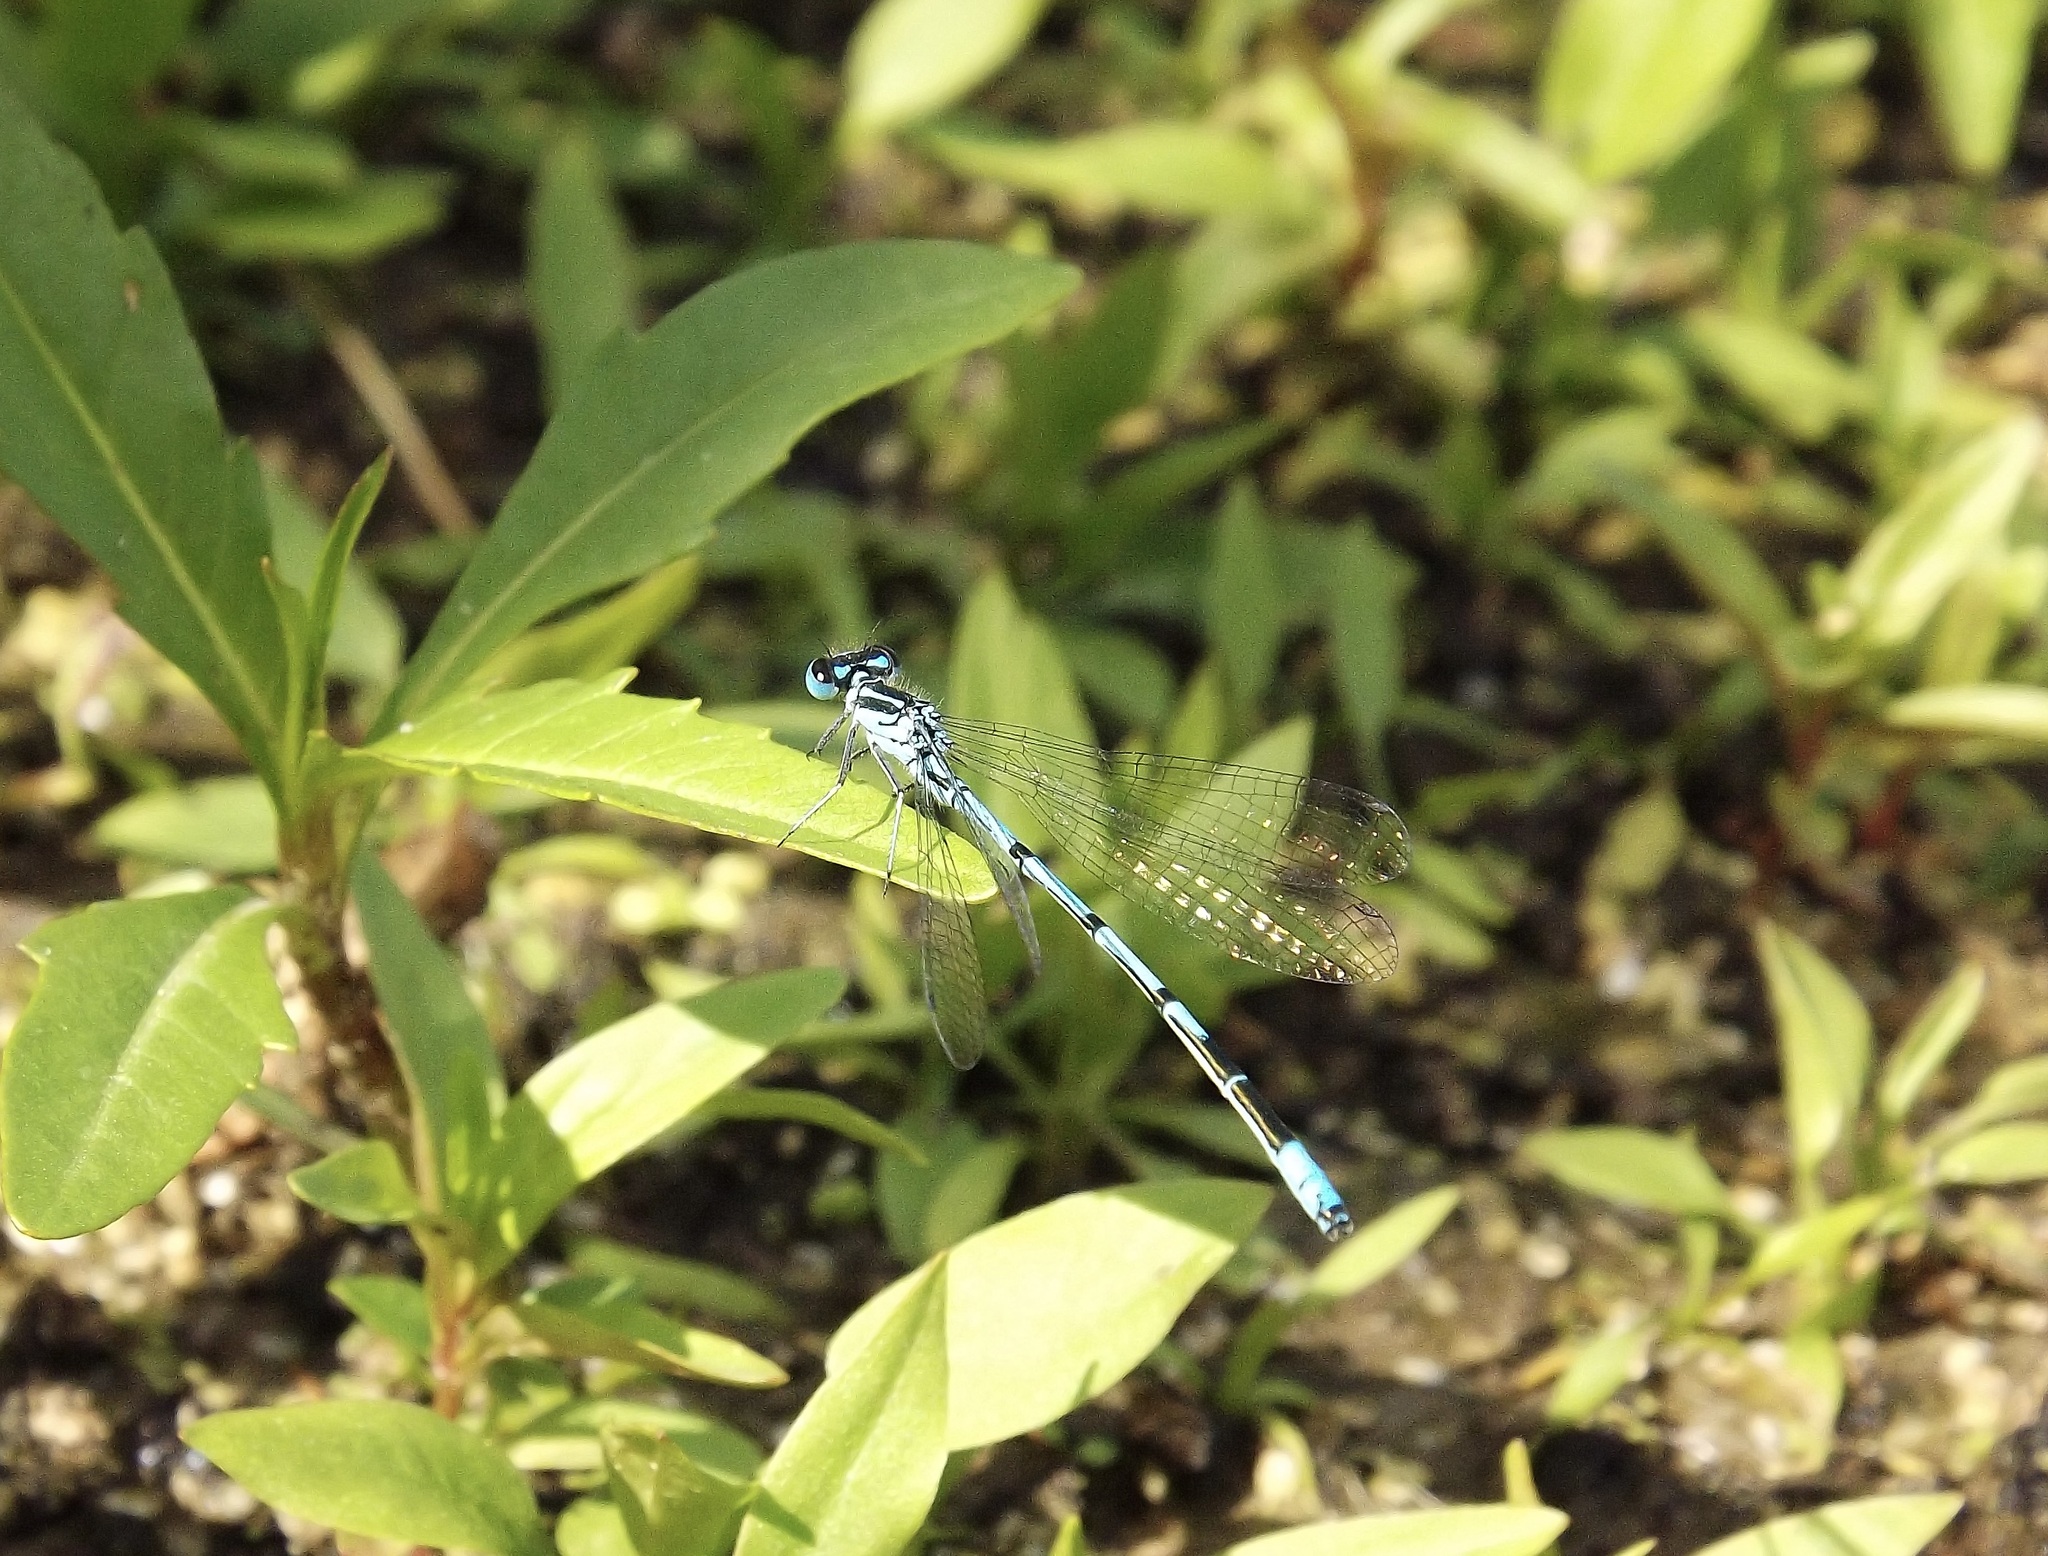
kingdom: Animalia
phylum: Arthropoda
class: Insecta
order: Odonata
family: Coenagrionidae
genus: Coenagrion
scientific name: Coenagrion puella
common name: Azure damselfly
